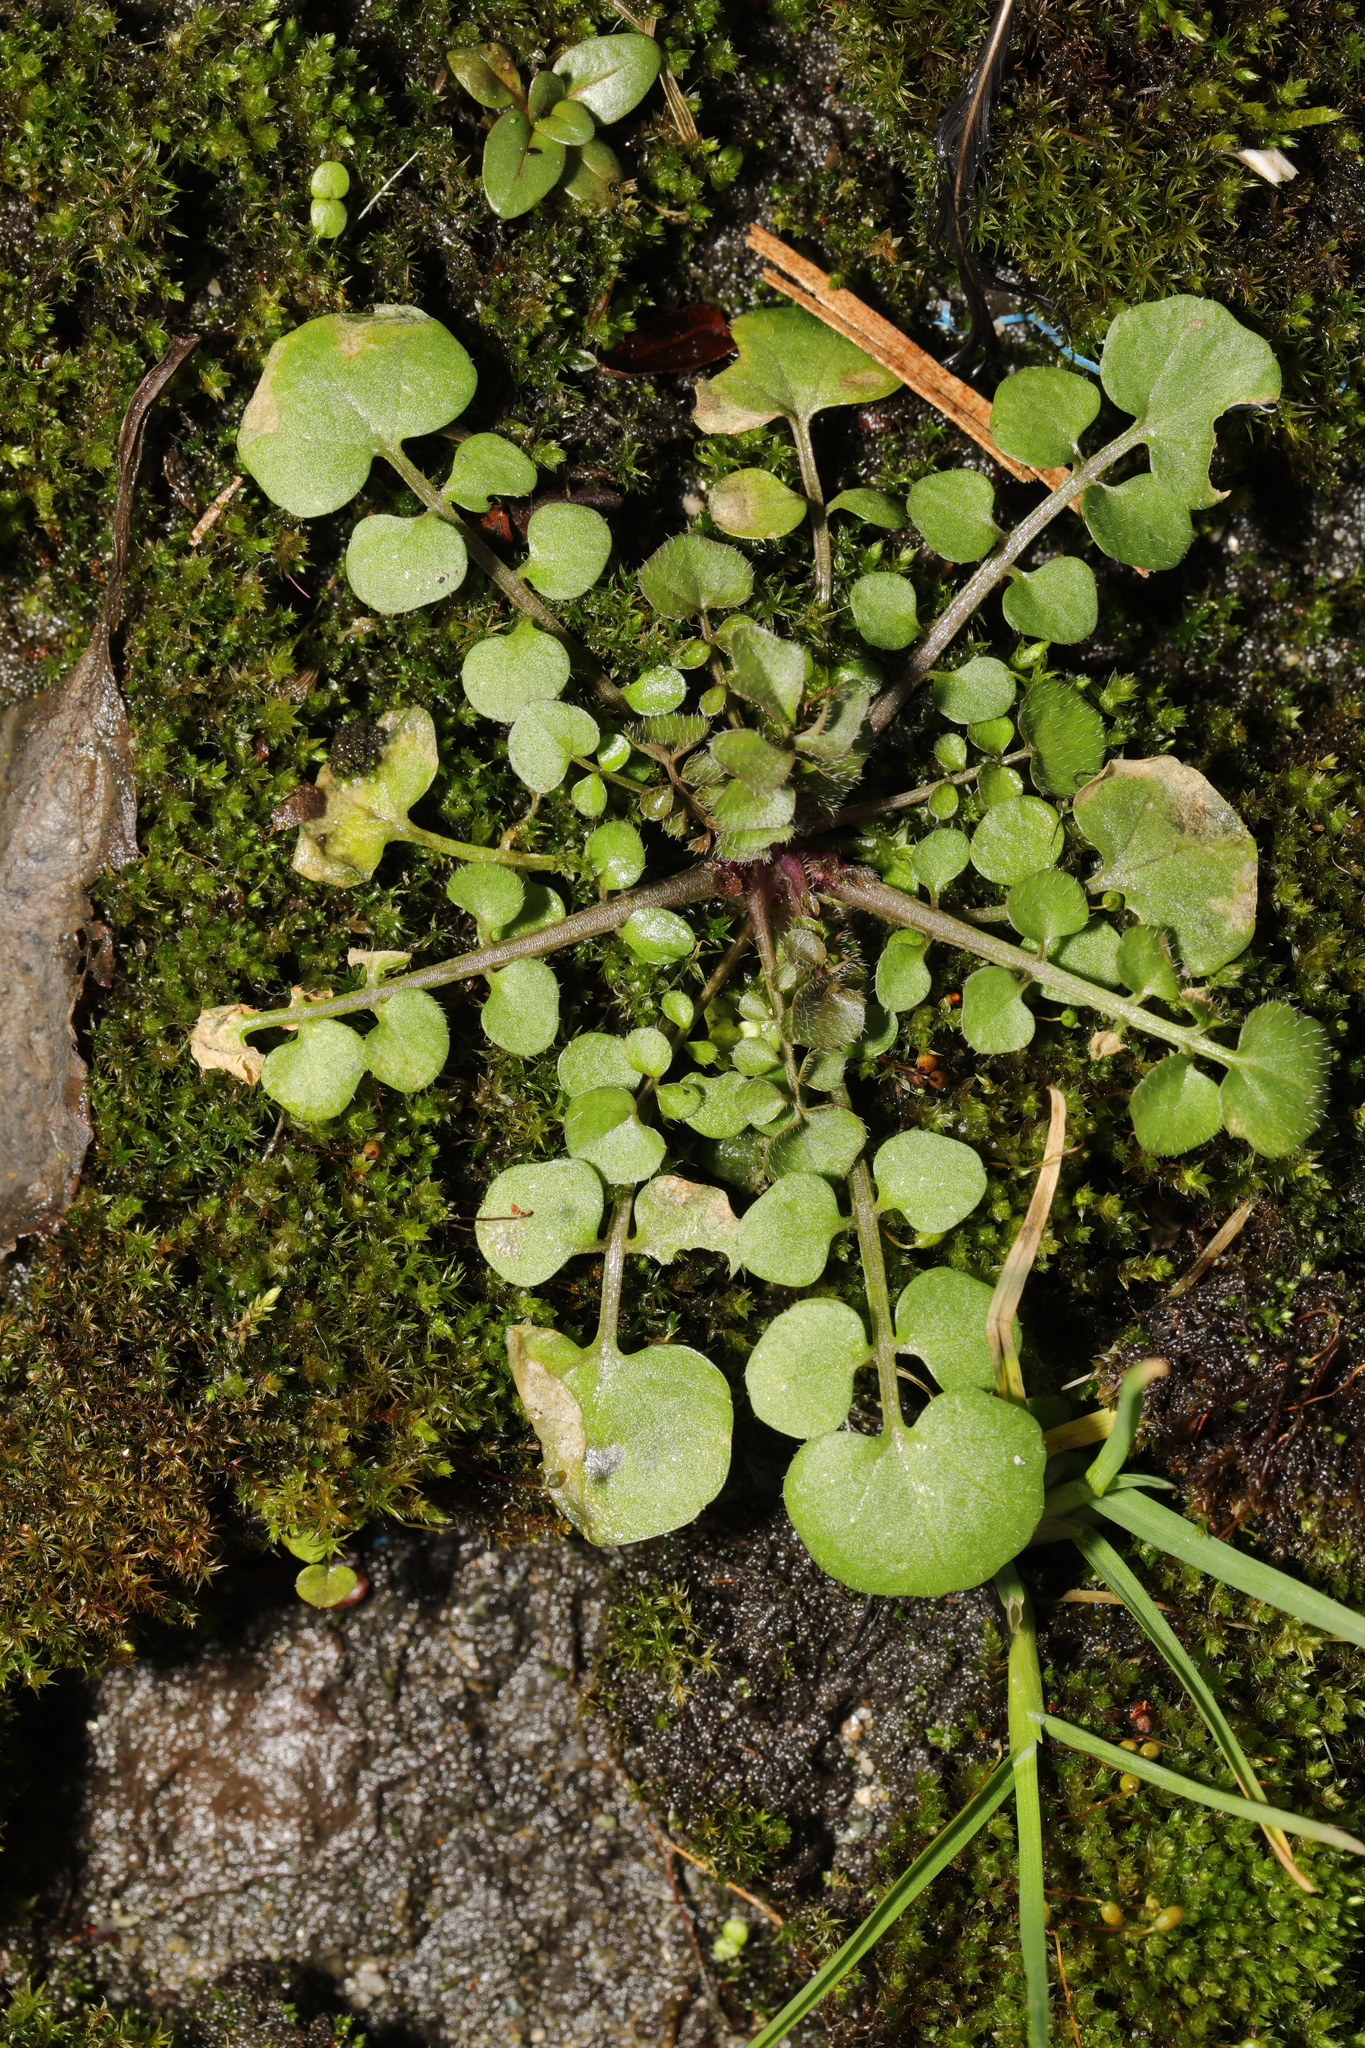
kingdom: Plantae
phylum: Tracheophyta
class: Magnoliopsida
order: Brassicales
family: Brassicaceae
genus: Cardamine
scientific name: Cardamine hirsuta
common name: Hairy bittercress
